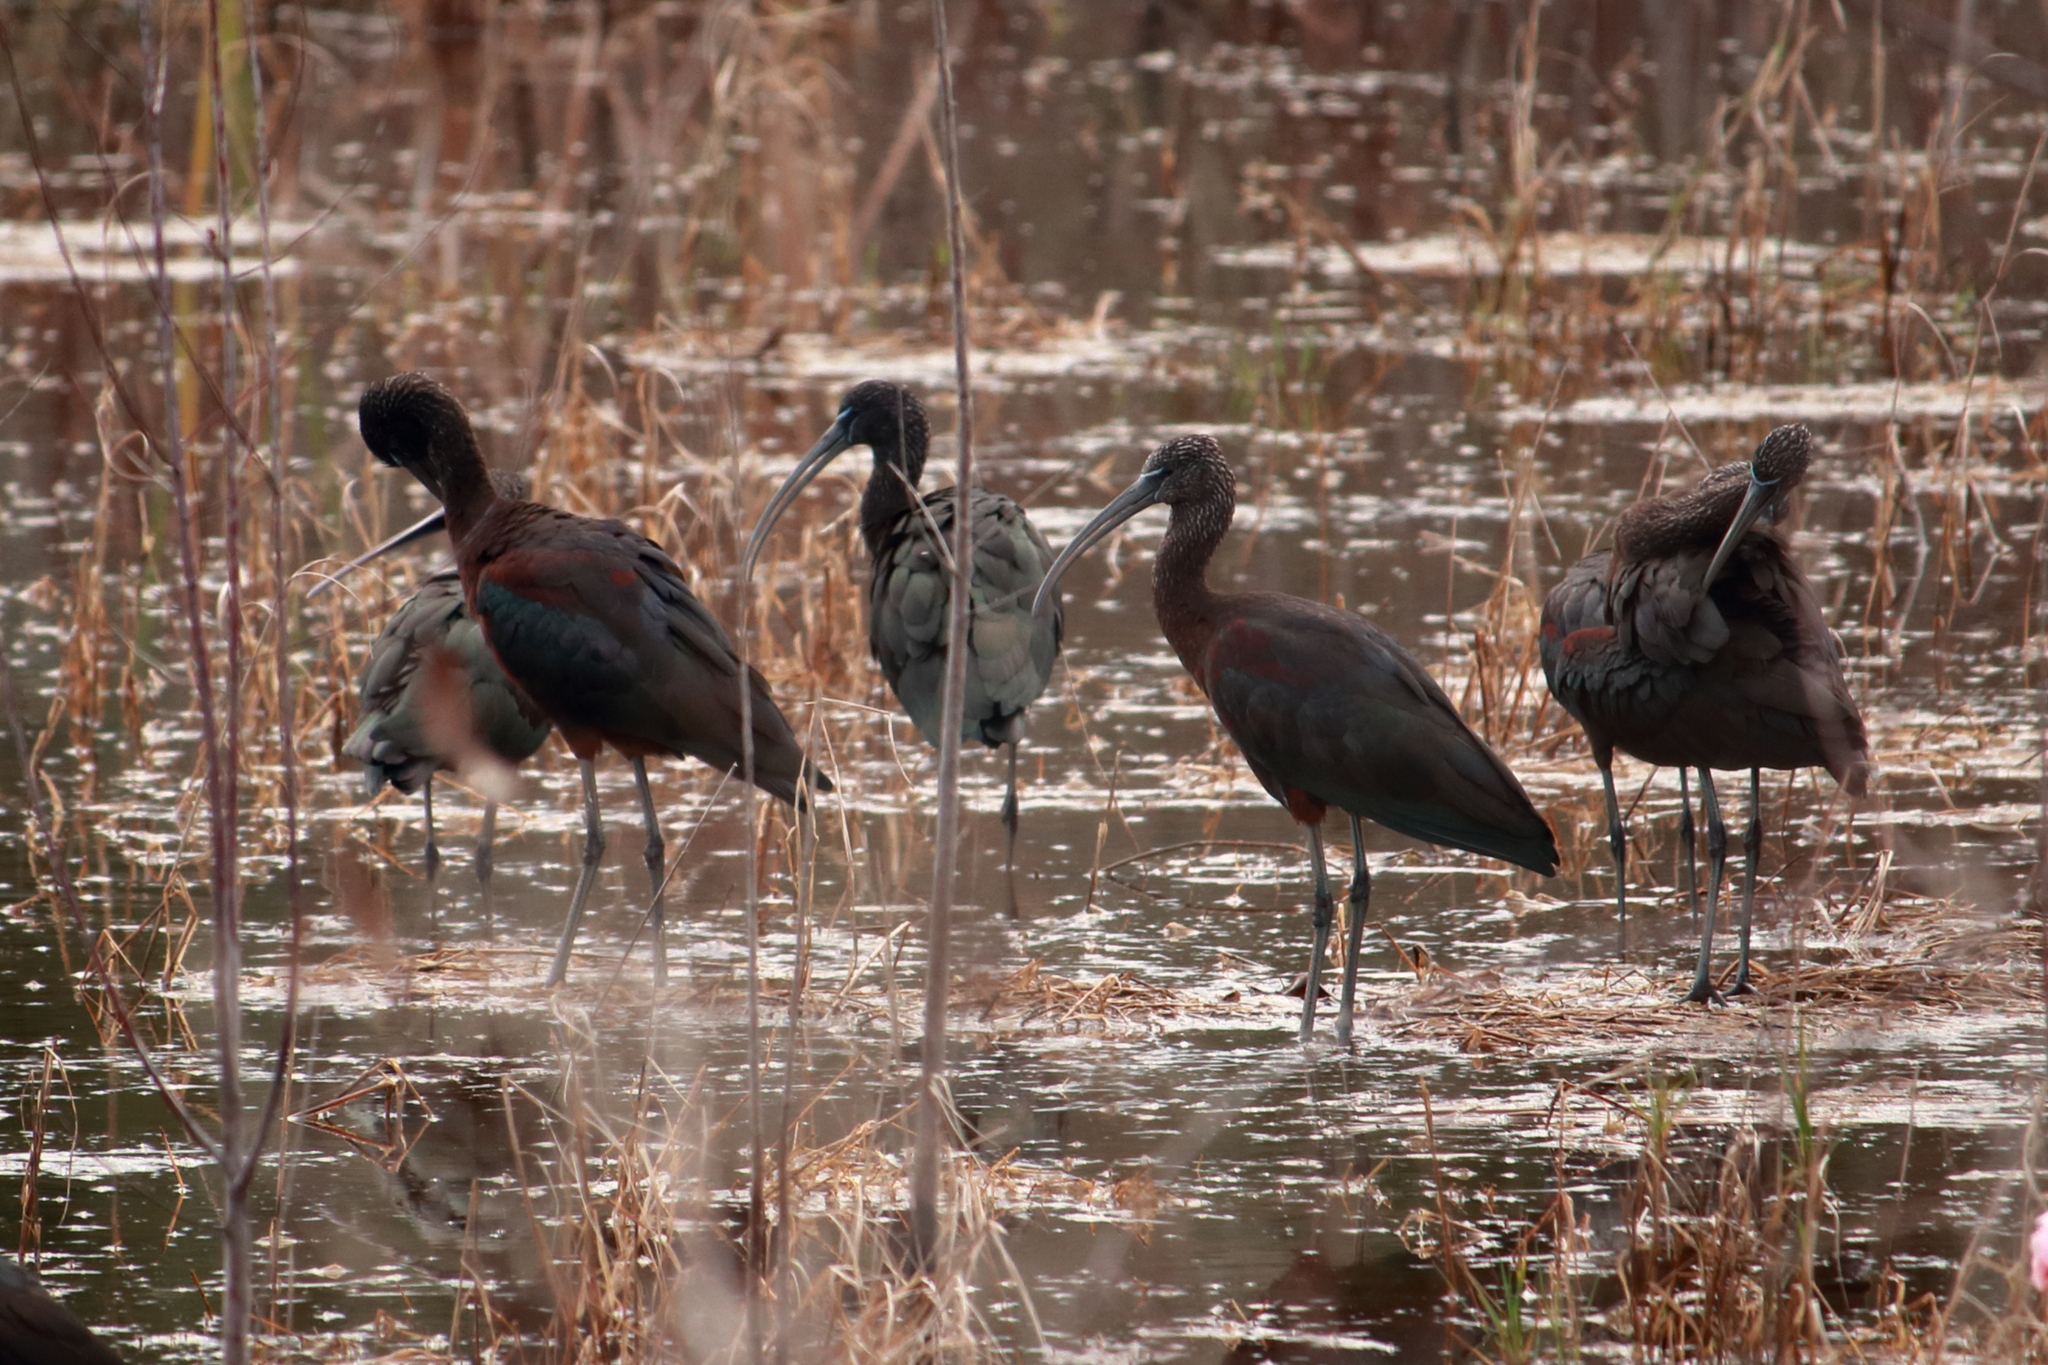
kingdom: Animalia
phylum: Chordata
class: Aves
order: Pelecaniformes
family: Threskiornithidae
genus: Plegadis
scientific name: Plegadis falcinellus
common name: Glossy ibis
